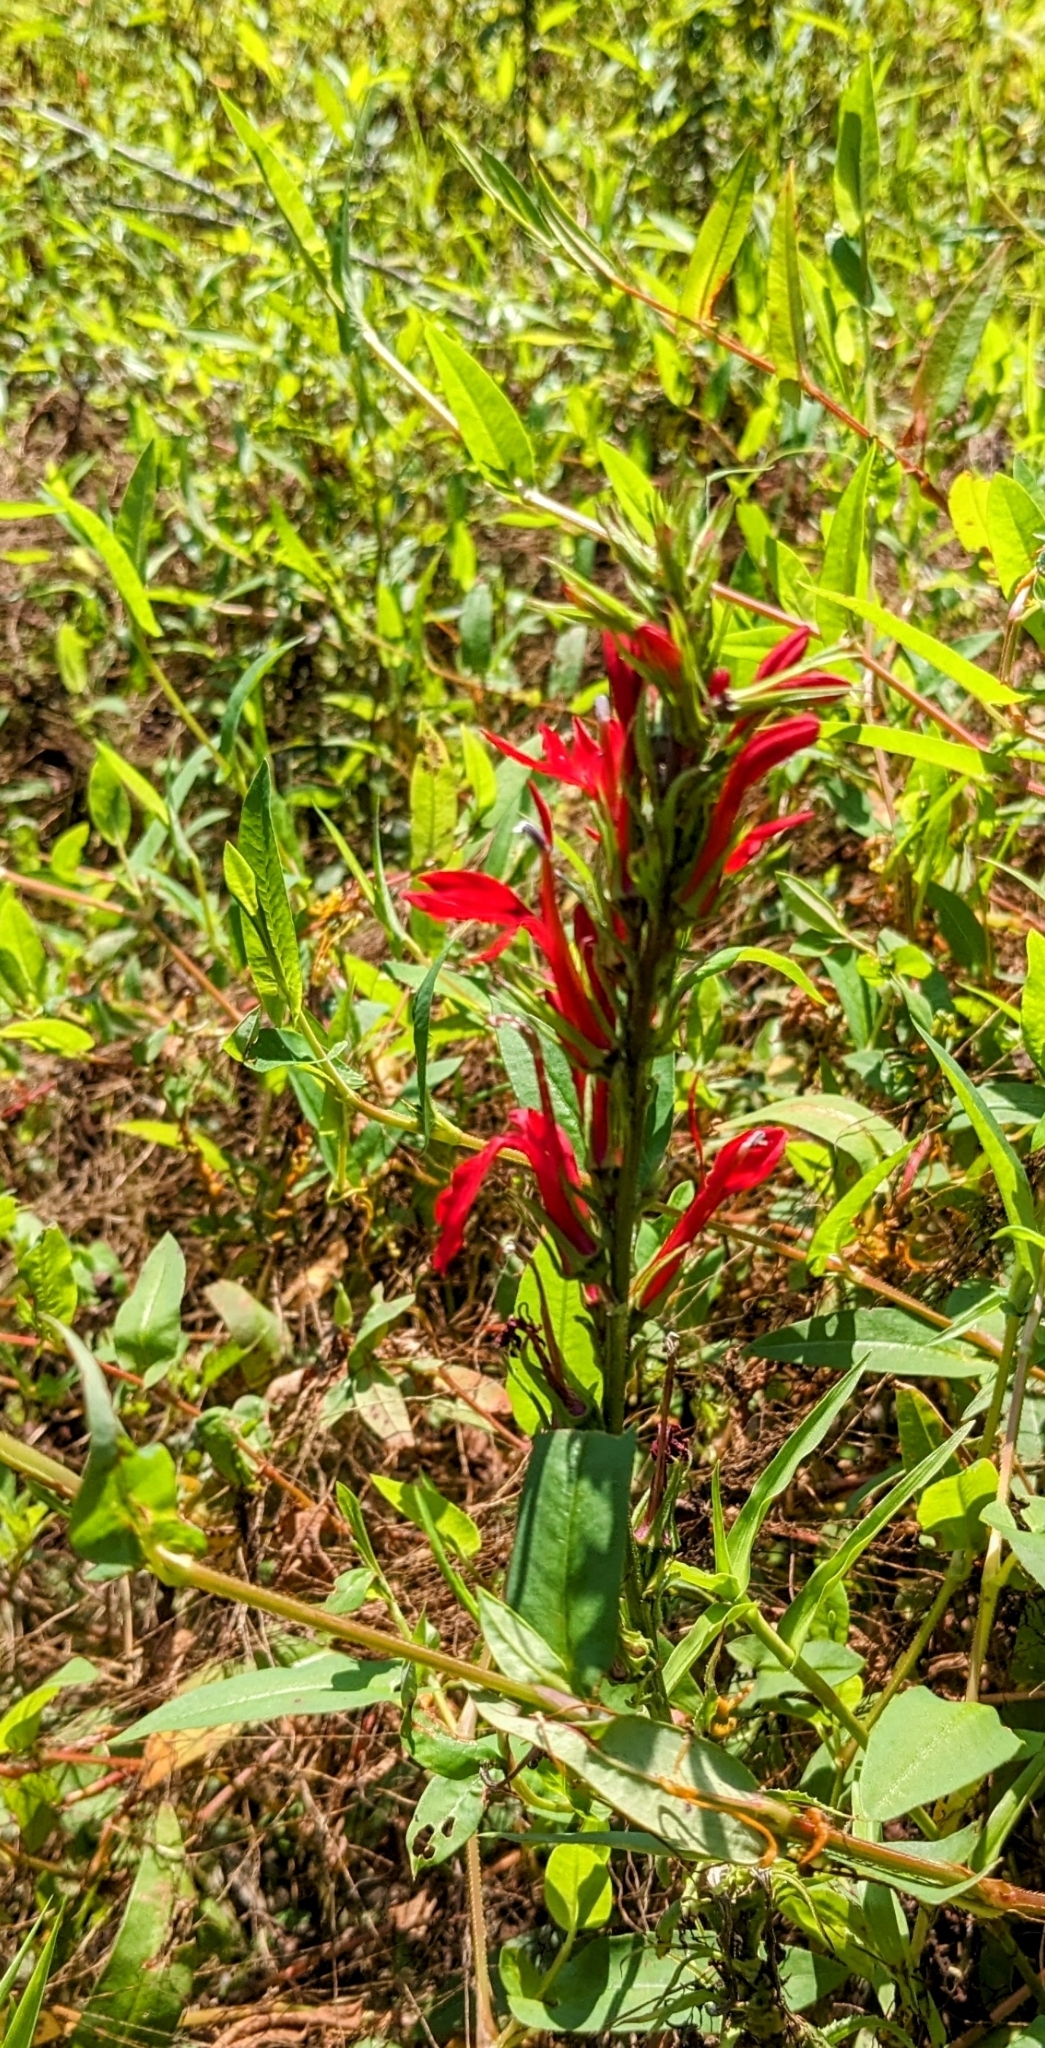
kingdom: Plantae
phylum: Tracheophyta
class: Magnoliopsida
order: Asterales
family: Campanulaceae
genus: Lobelia
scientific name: Lobelia cardinalis
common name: Cardinal flower
